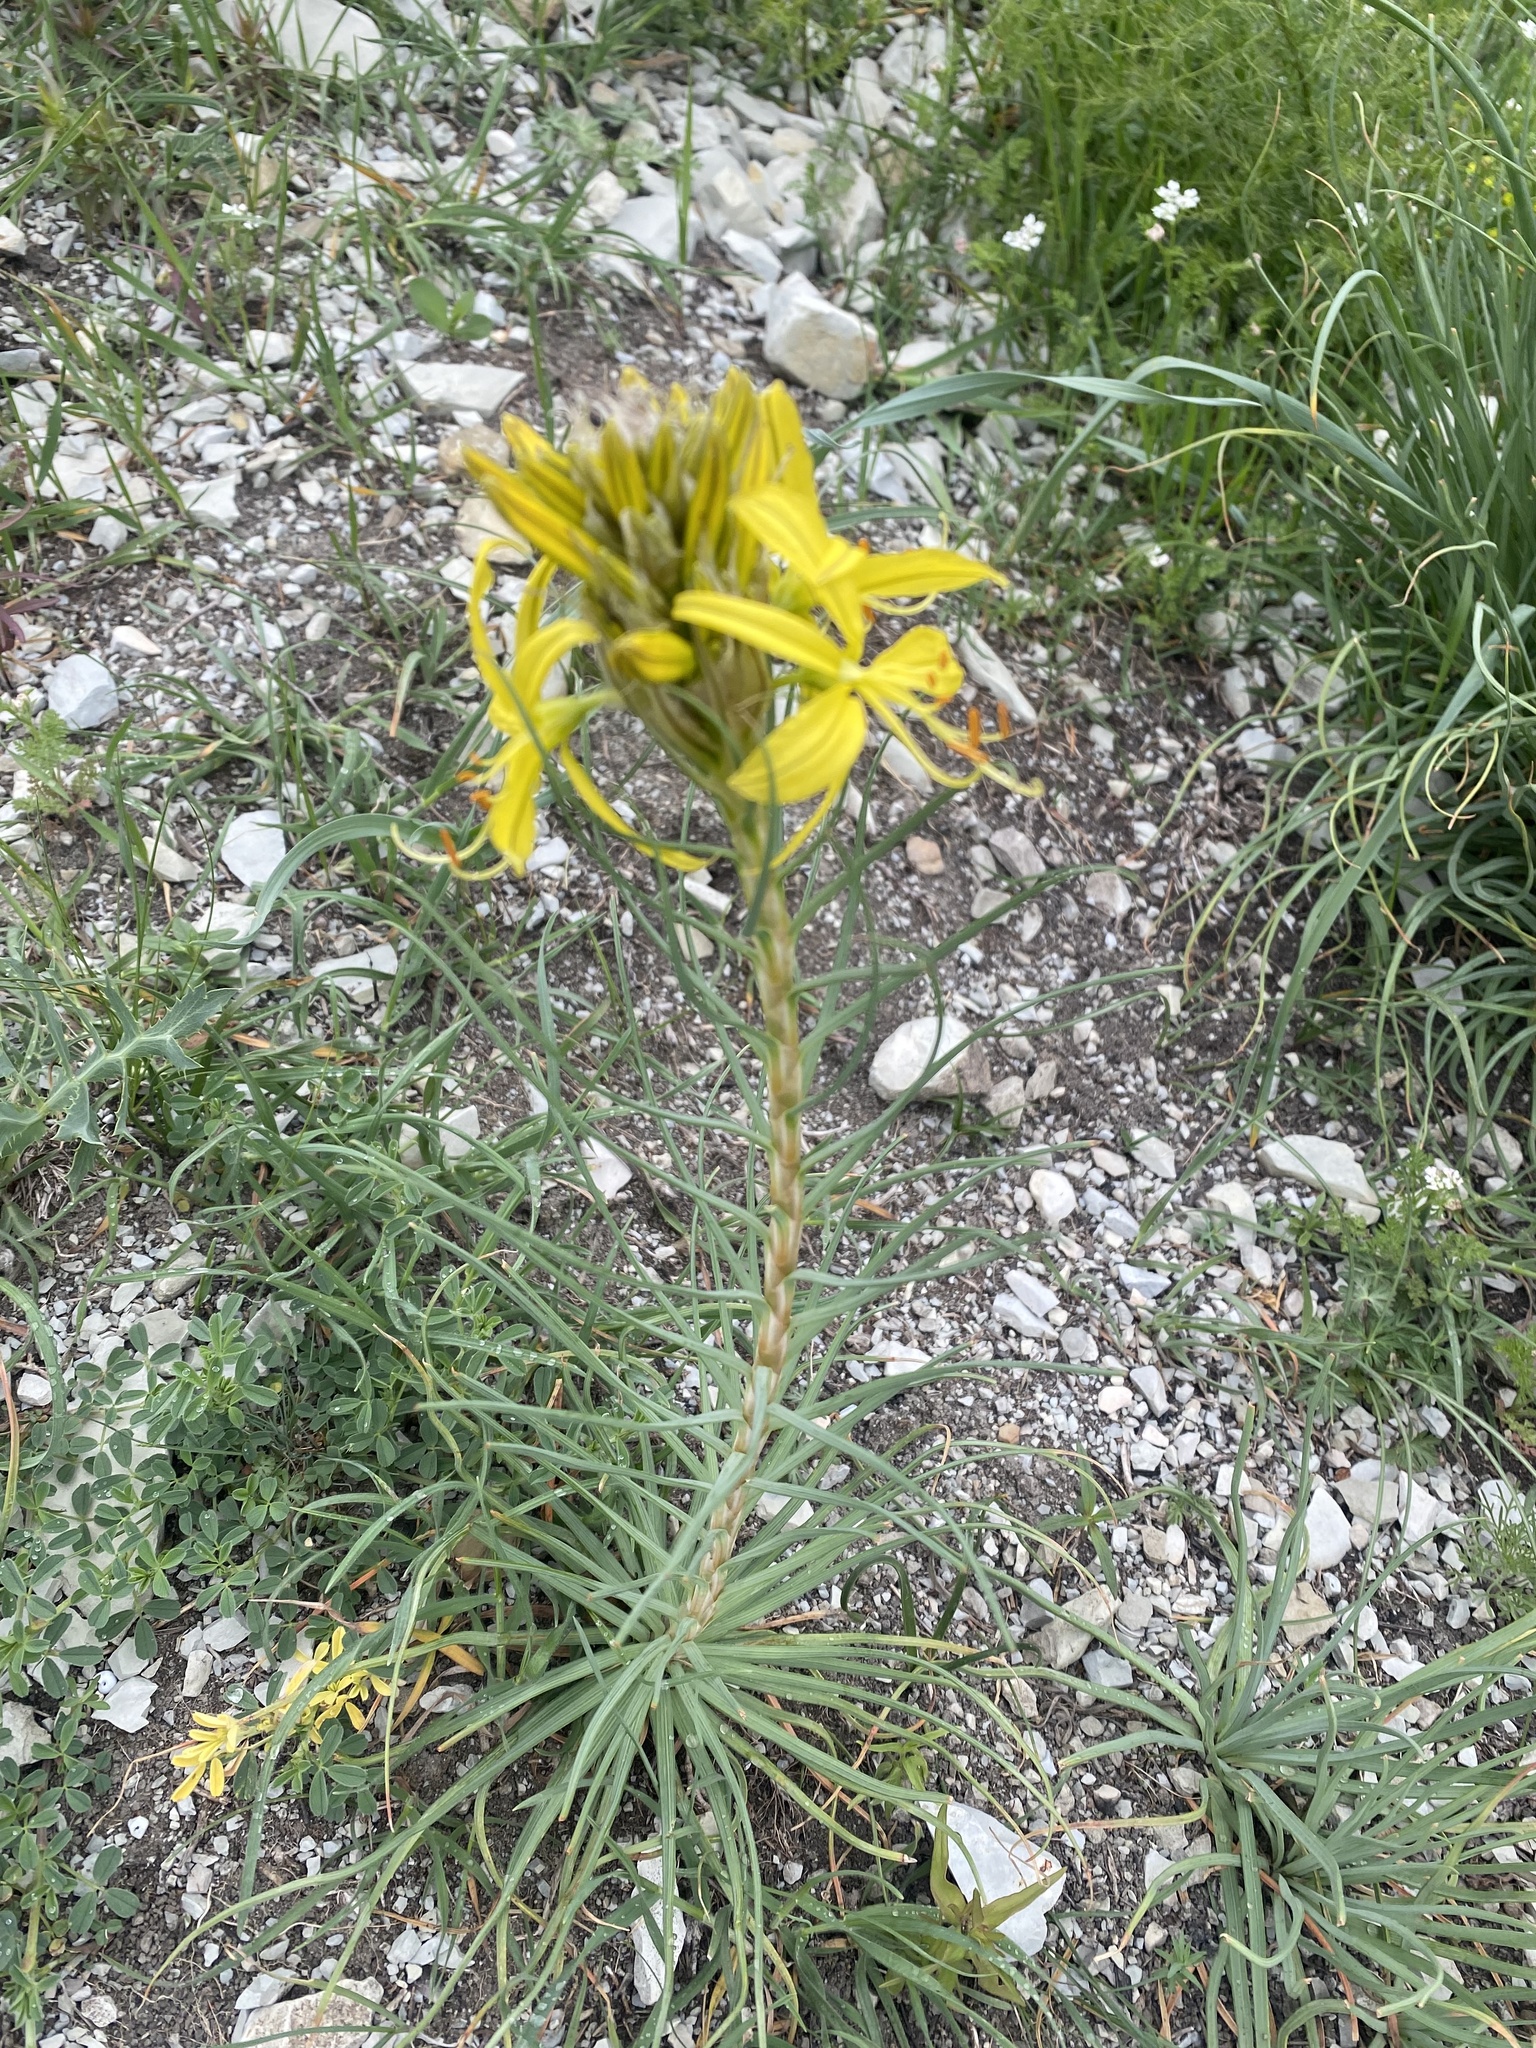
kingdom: Plantae
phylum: Tracheophyta
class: Liliopsida
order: Asparagales
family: Asphodelaceae
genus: Asphodeline
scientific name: Asphodeline lutea
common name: Yellow asphodel
